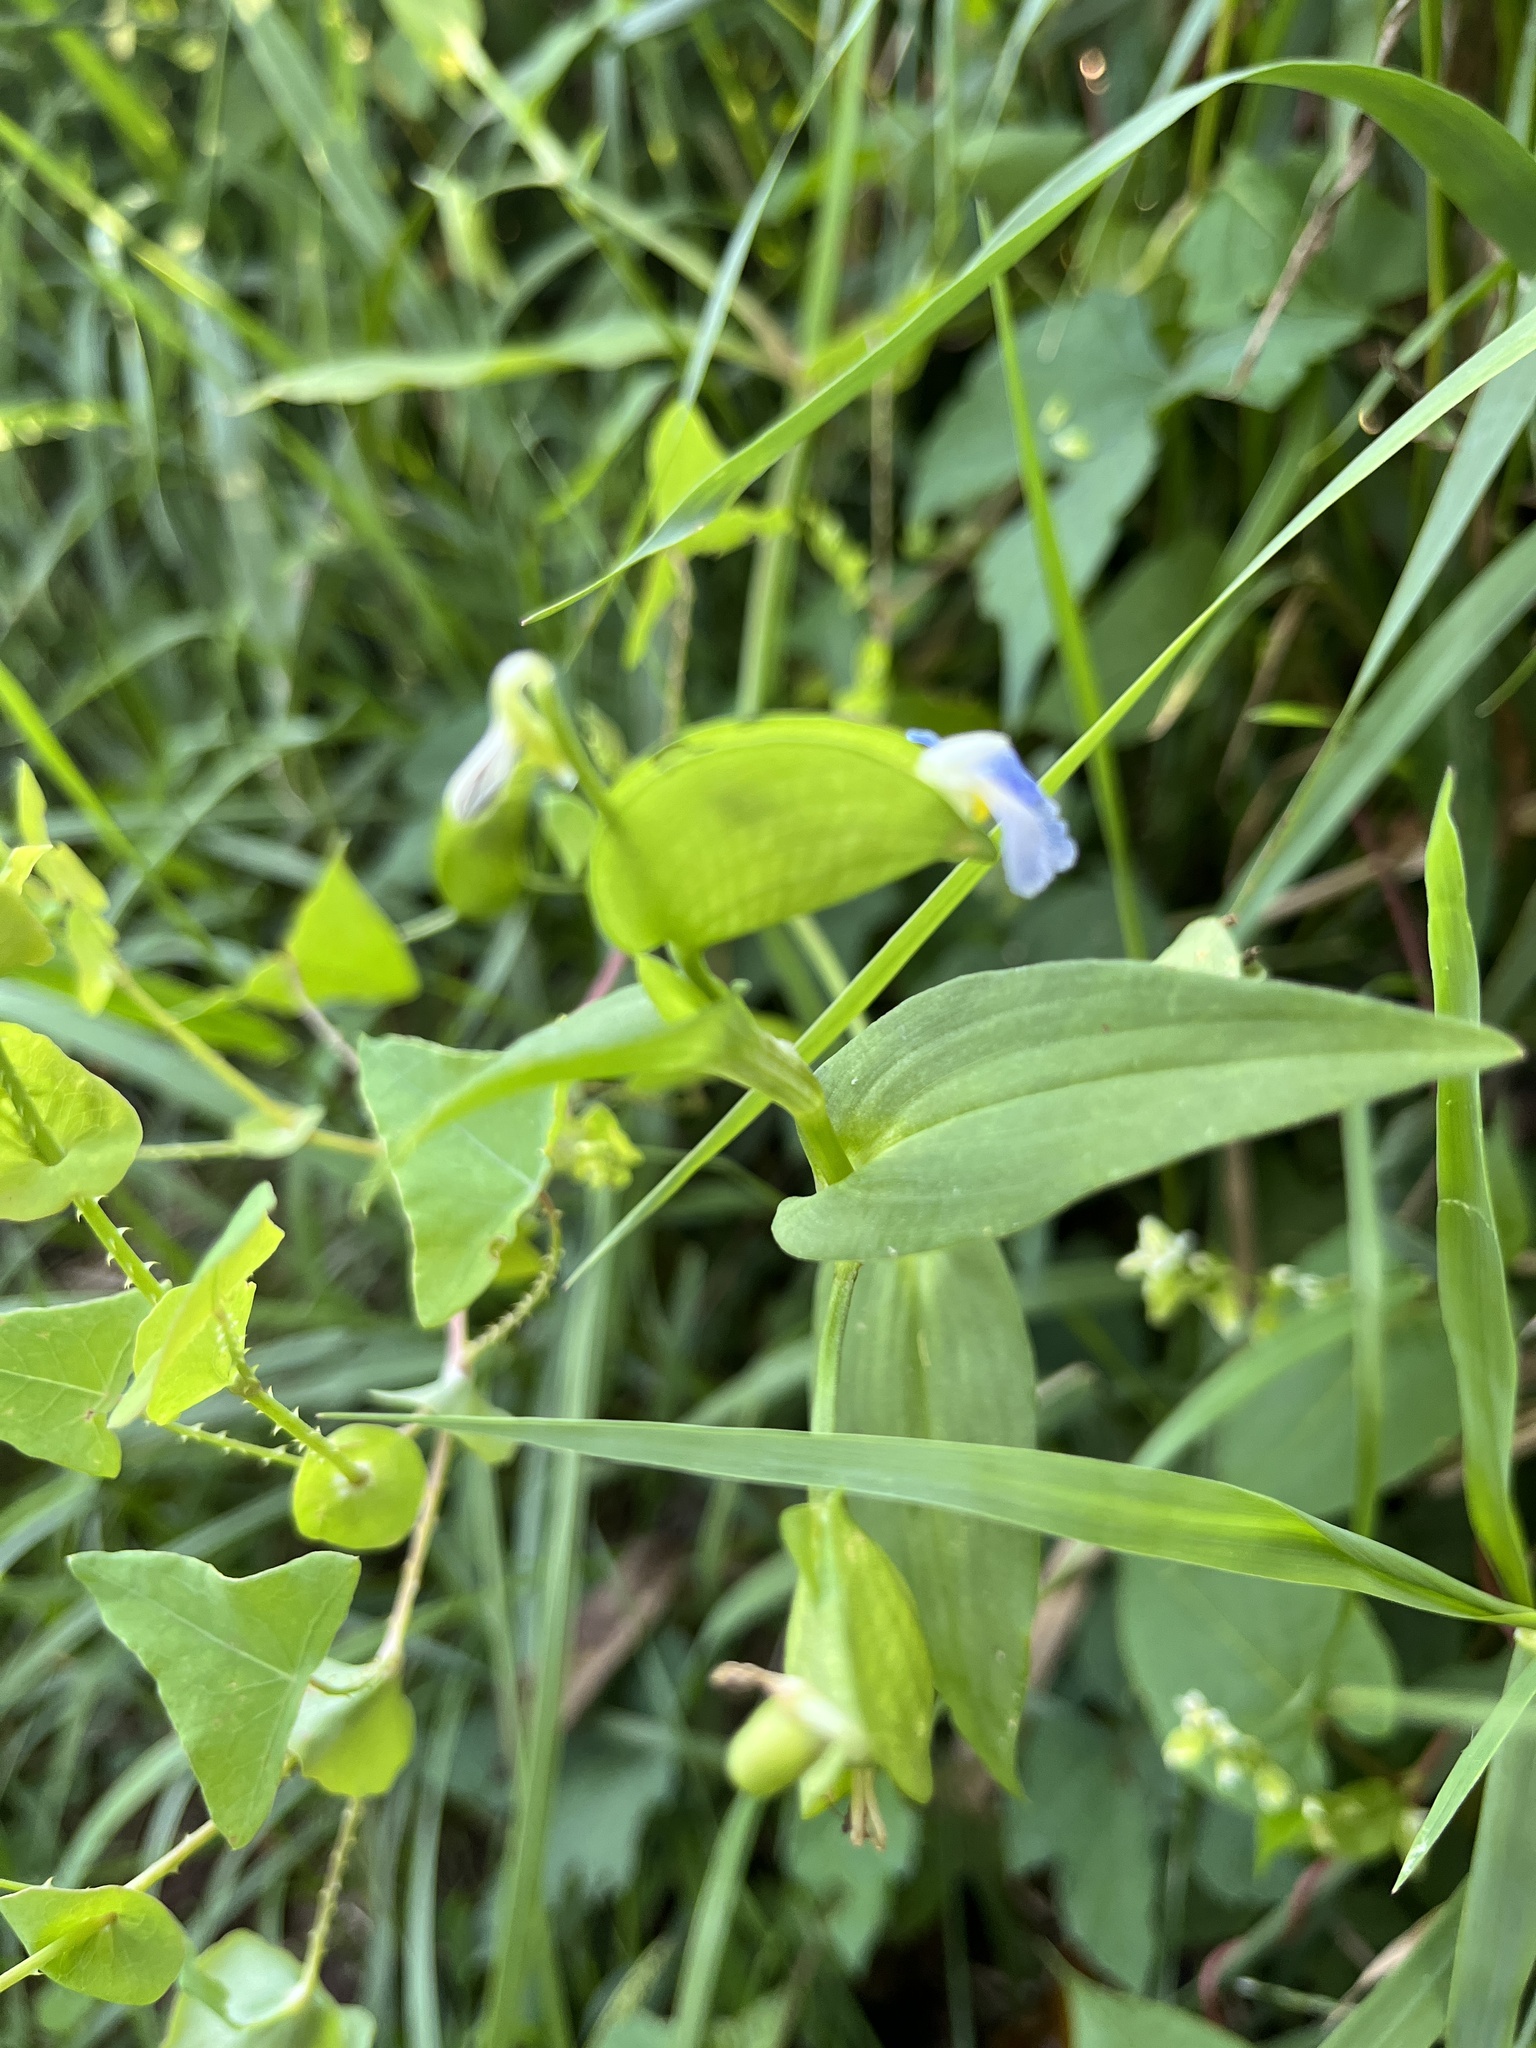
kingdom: Plantae
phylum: Tracheophyta
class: Liliopsida
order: Commelinales
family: Commelinaceae
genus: Commelina
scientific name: Commelina communis
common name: Asiatic dayflower
